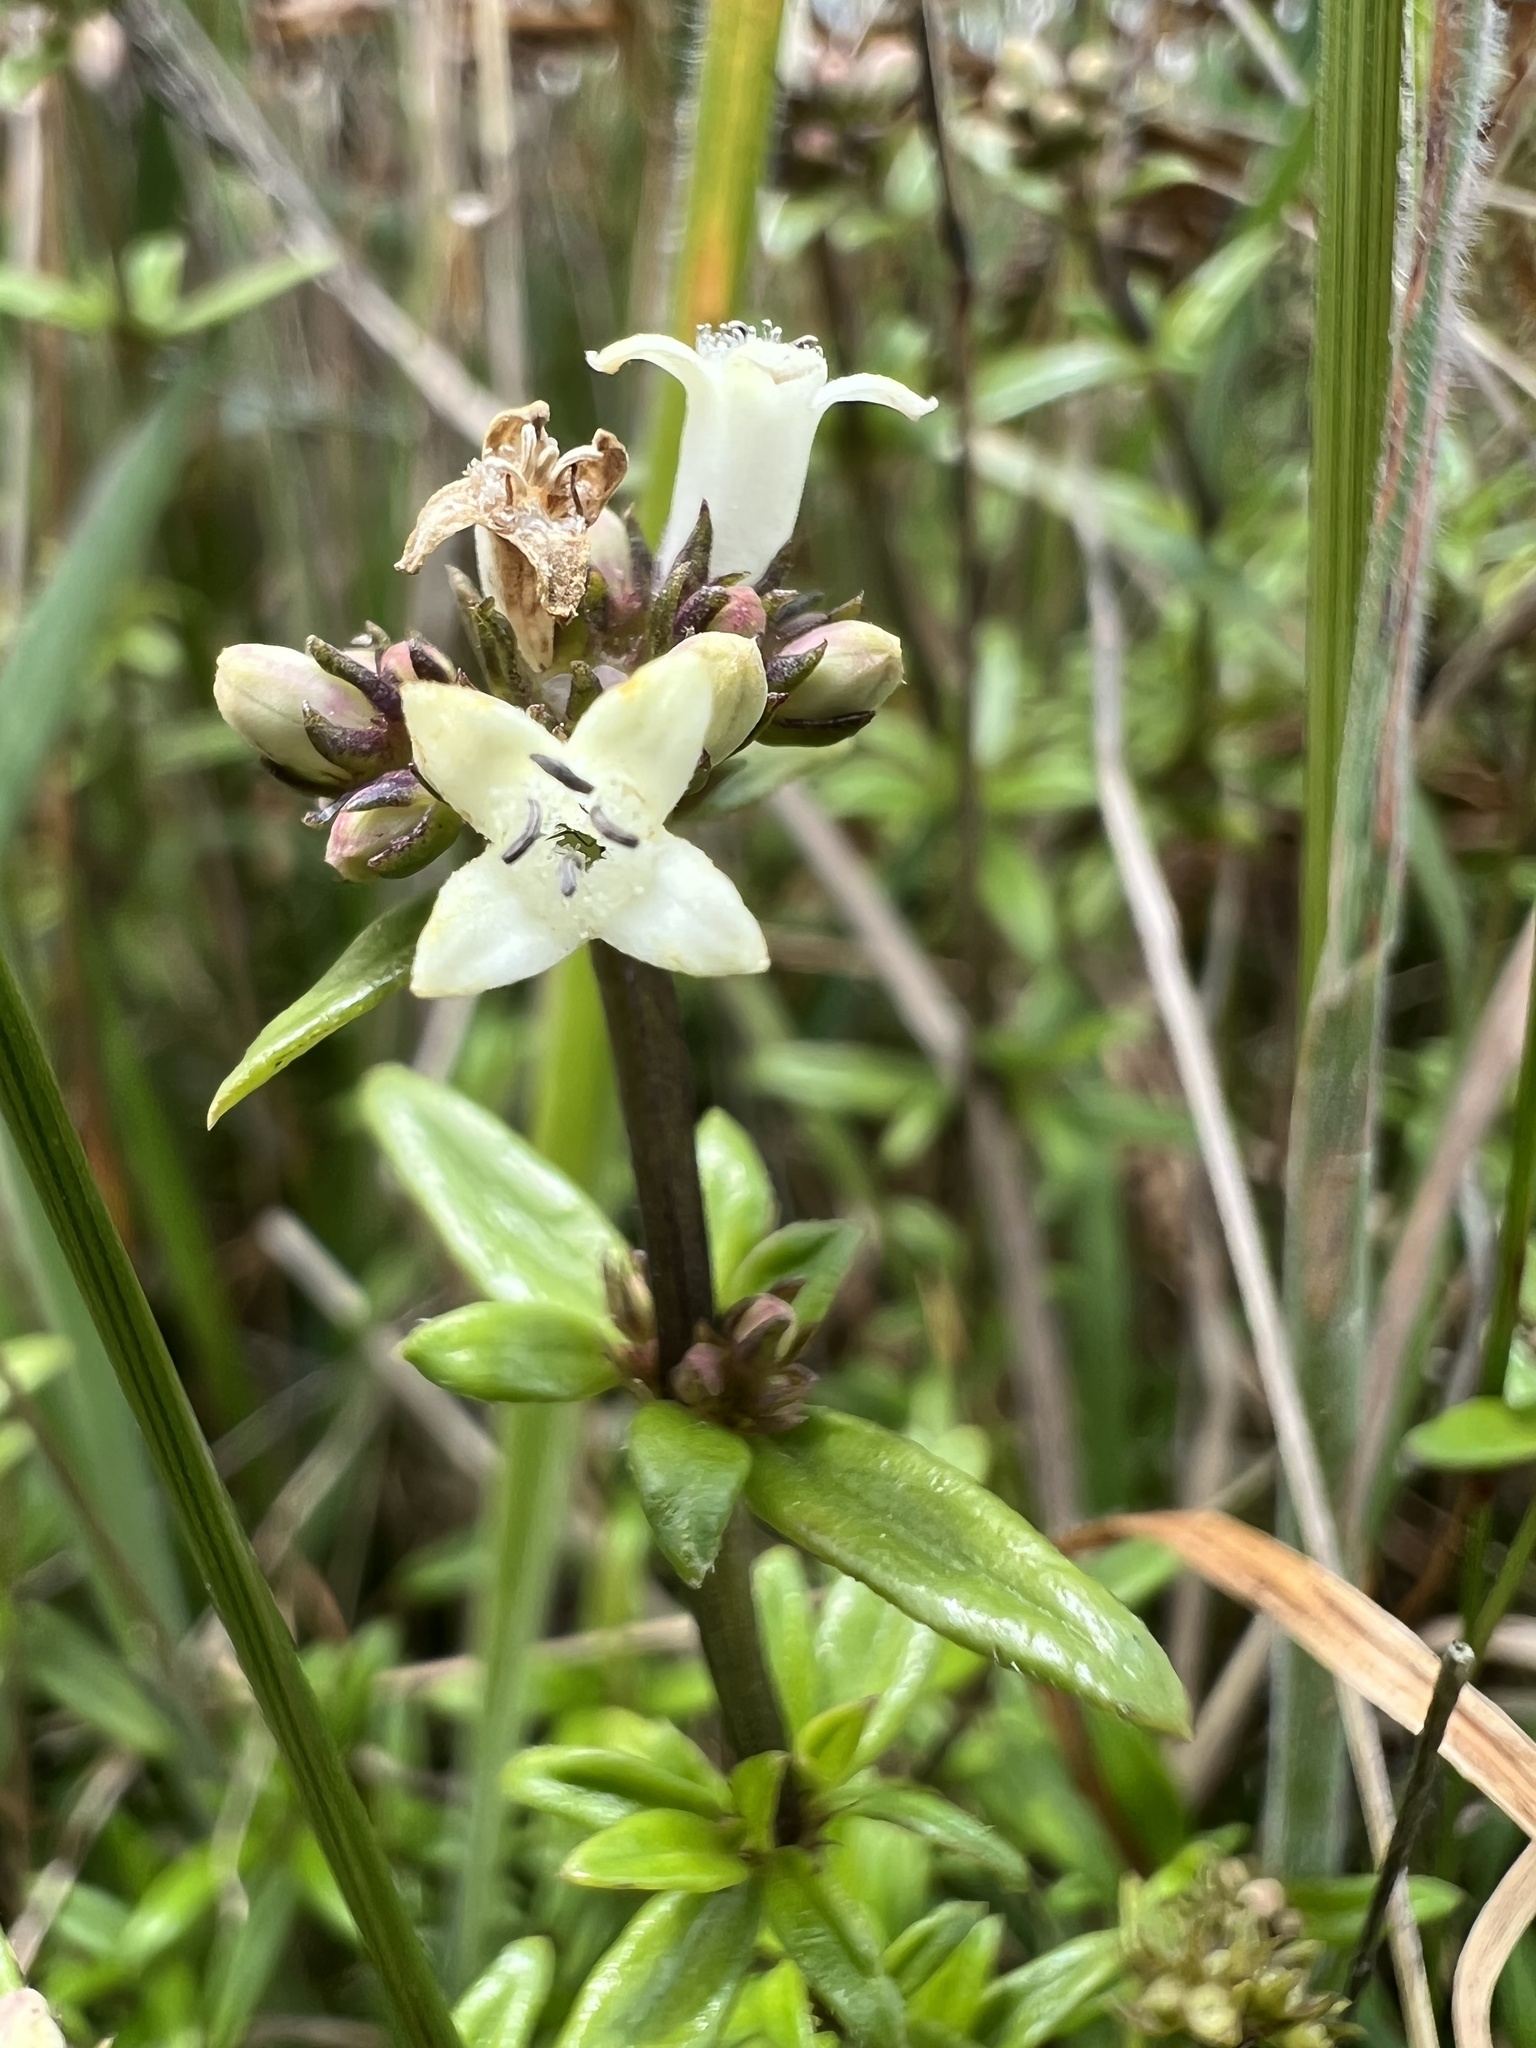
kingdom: Plantae
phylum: Tracheophyta
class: Magnoliopsida
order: Gentianales
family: Rubiaceae
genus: Galianthe
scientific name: Galianthe bogotensis
